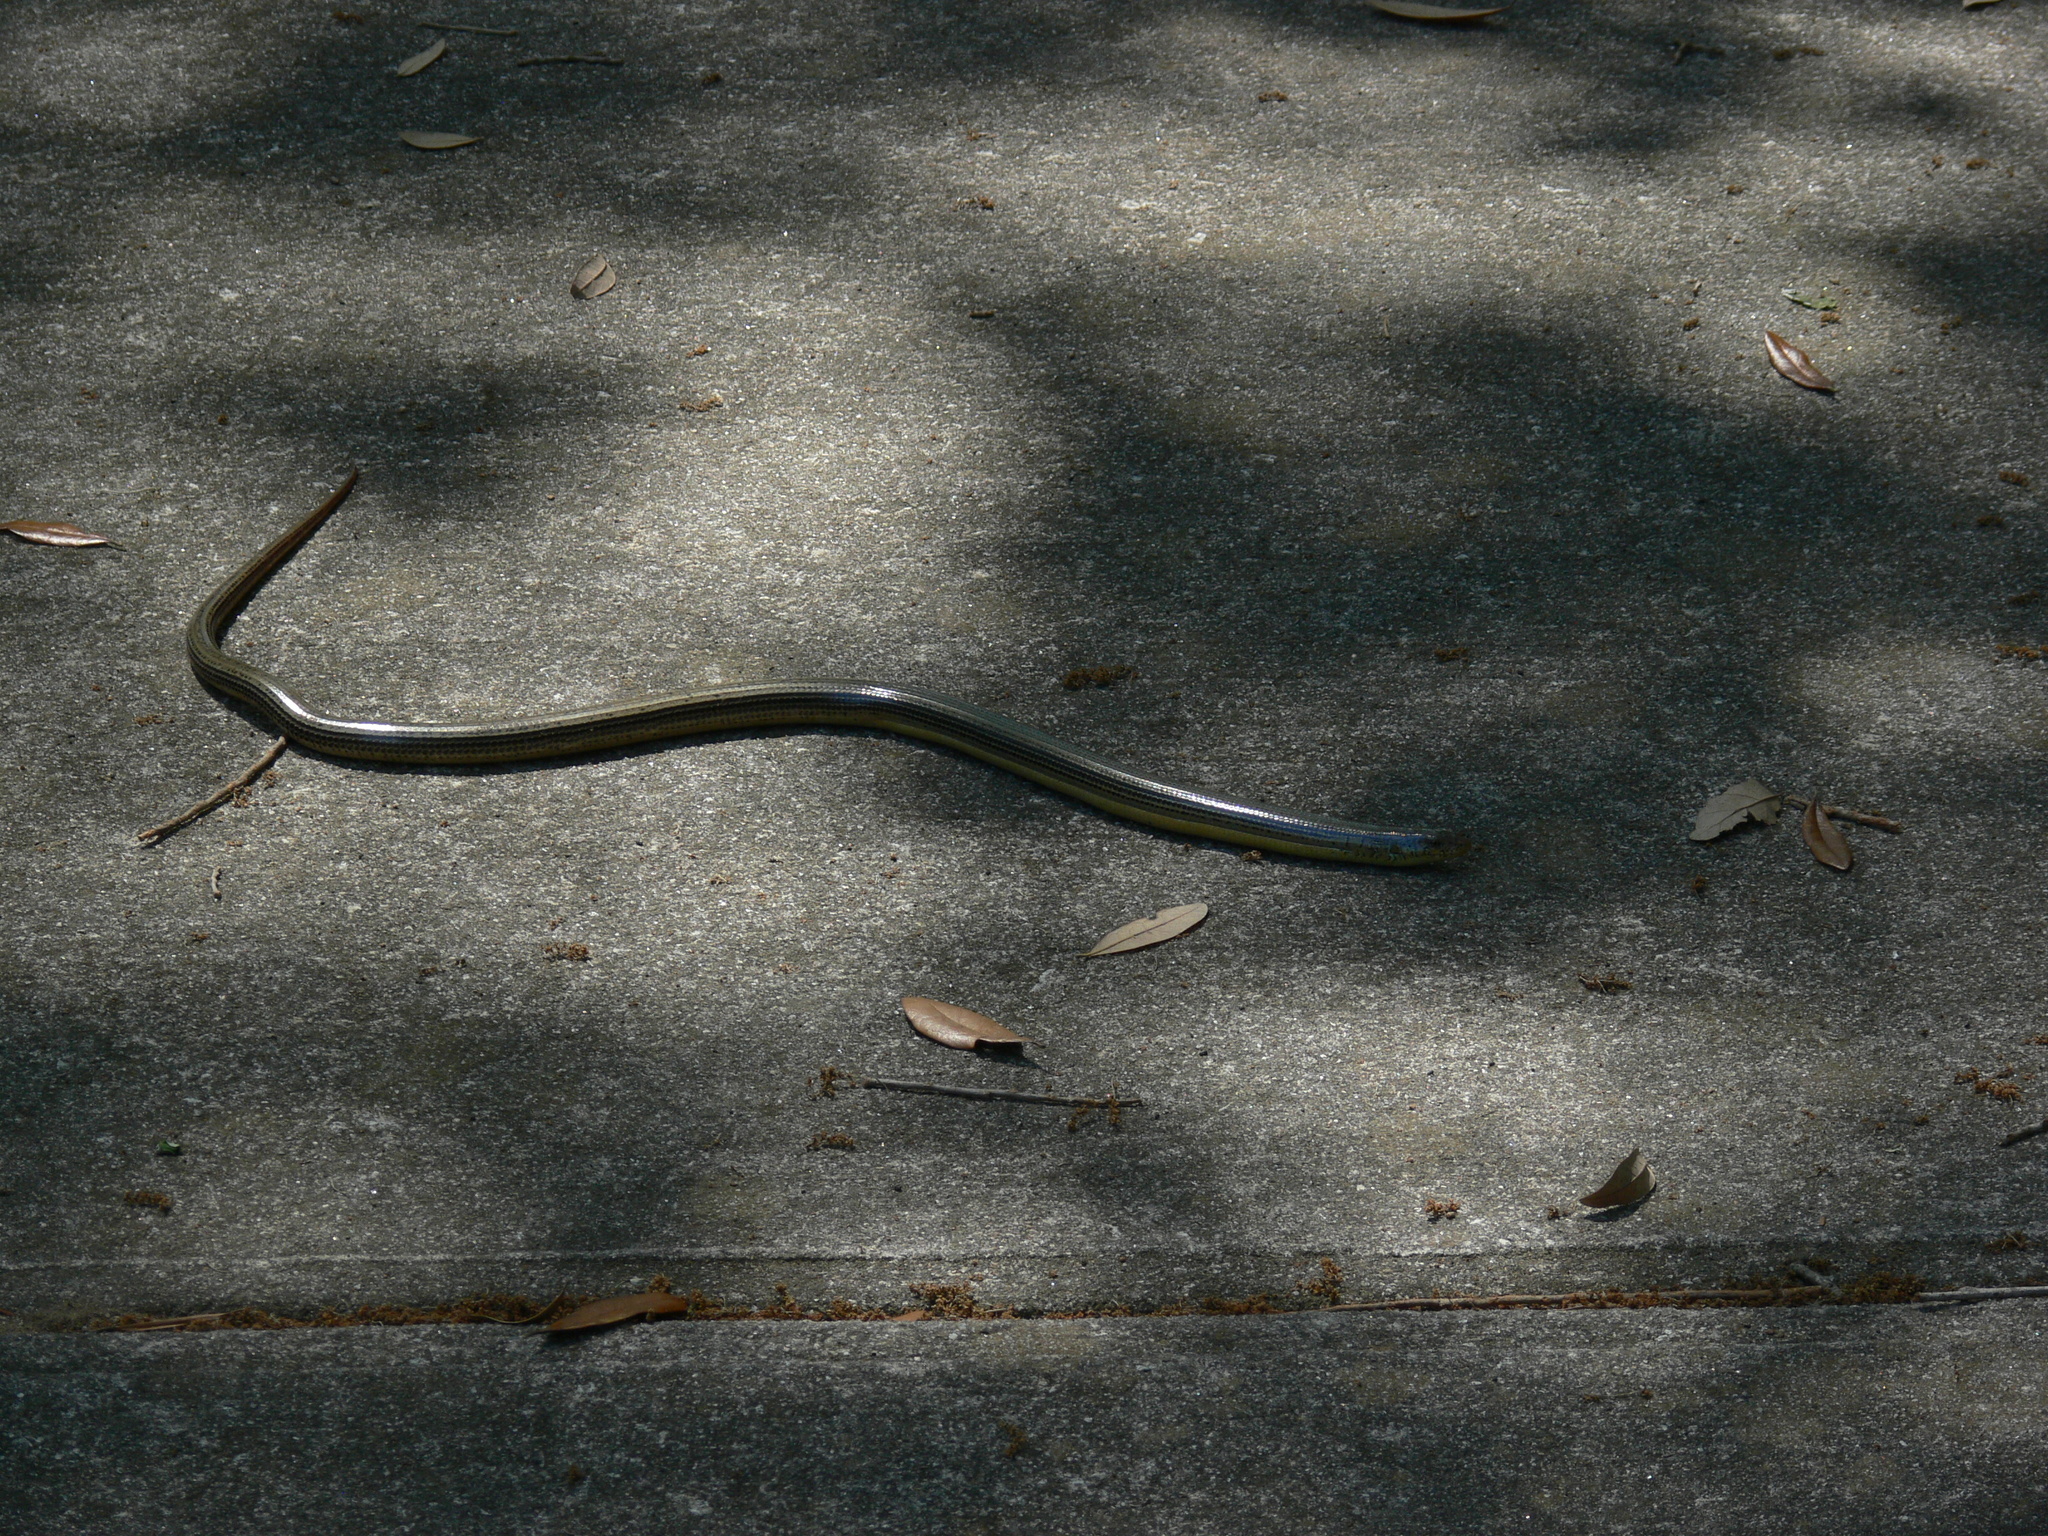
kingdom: Animalia
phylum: Chordata
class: Squamata
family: Anguidae
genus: Ophisaurus
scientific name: Ophisaurus ventralis
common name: Eastern glass lizard
